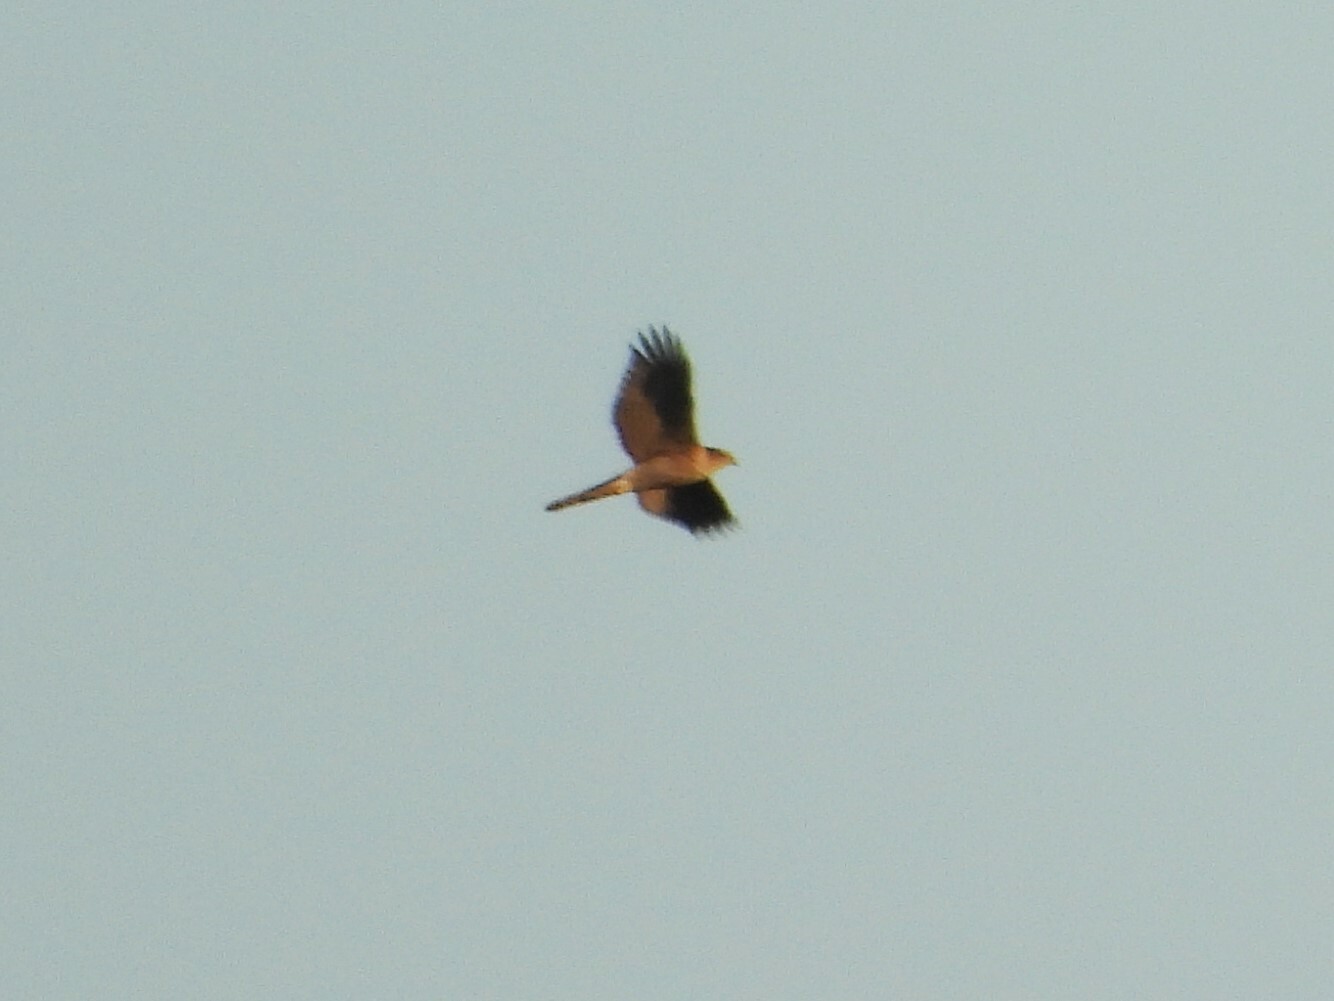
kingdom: Animalia
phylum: Chordata
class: Aves
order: Accipitriformes
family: Accipitridae
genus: Accipiter
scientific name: Accipiter nisus
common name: Eurasian sparrowhawk
